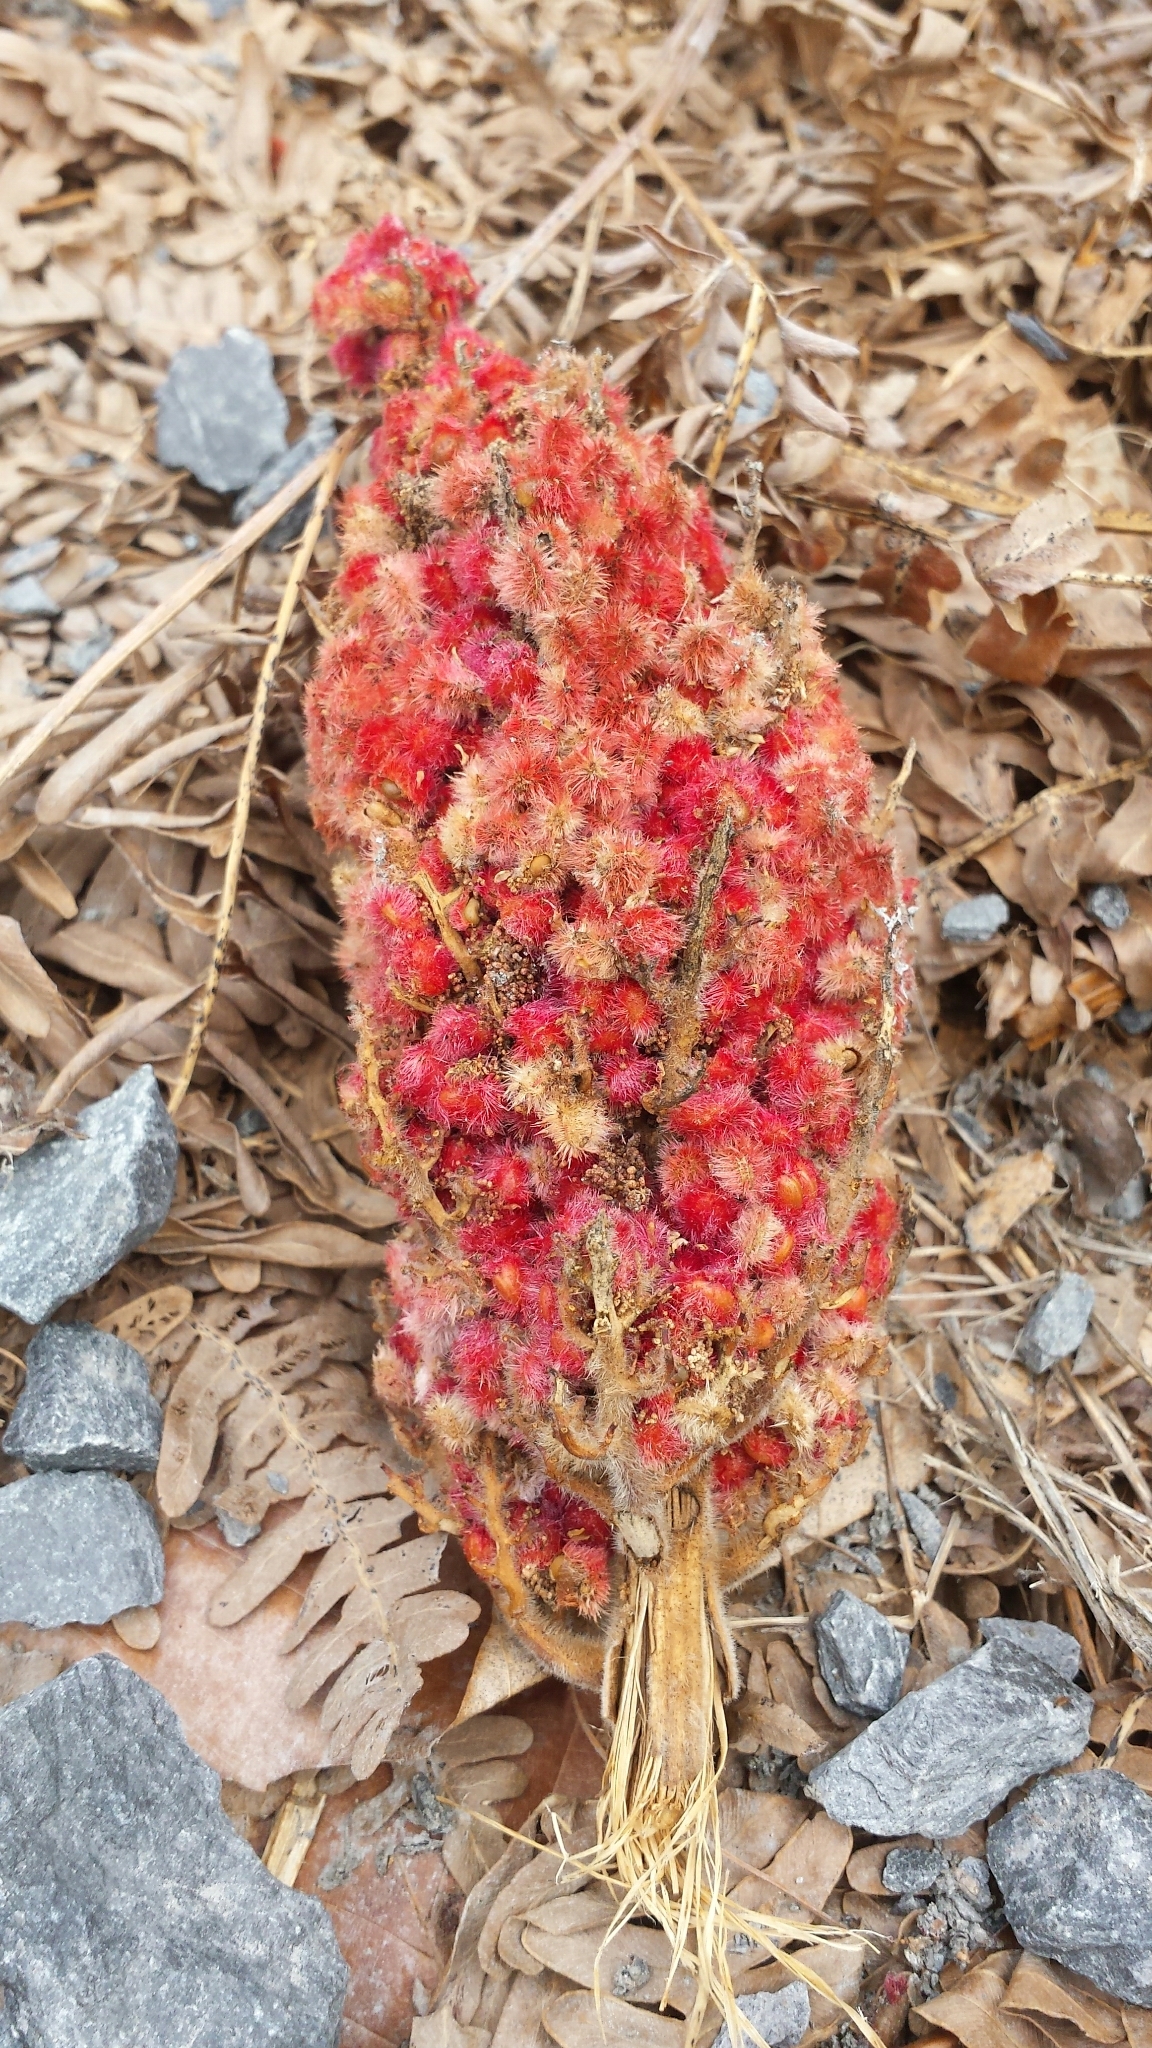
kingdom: Plantae
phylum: Tracheophyta
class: Magnoliopsida
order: Sapindales
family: Anacardiaceae
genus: Rhus
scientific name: Rhus typhina
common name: Staghorn sumac
